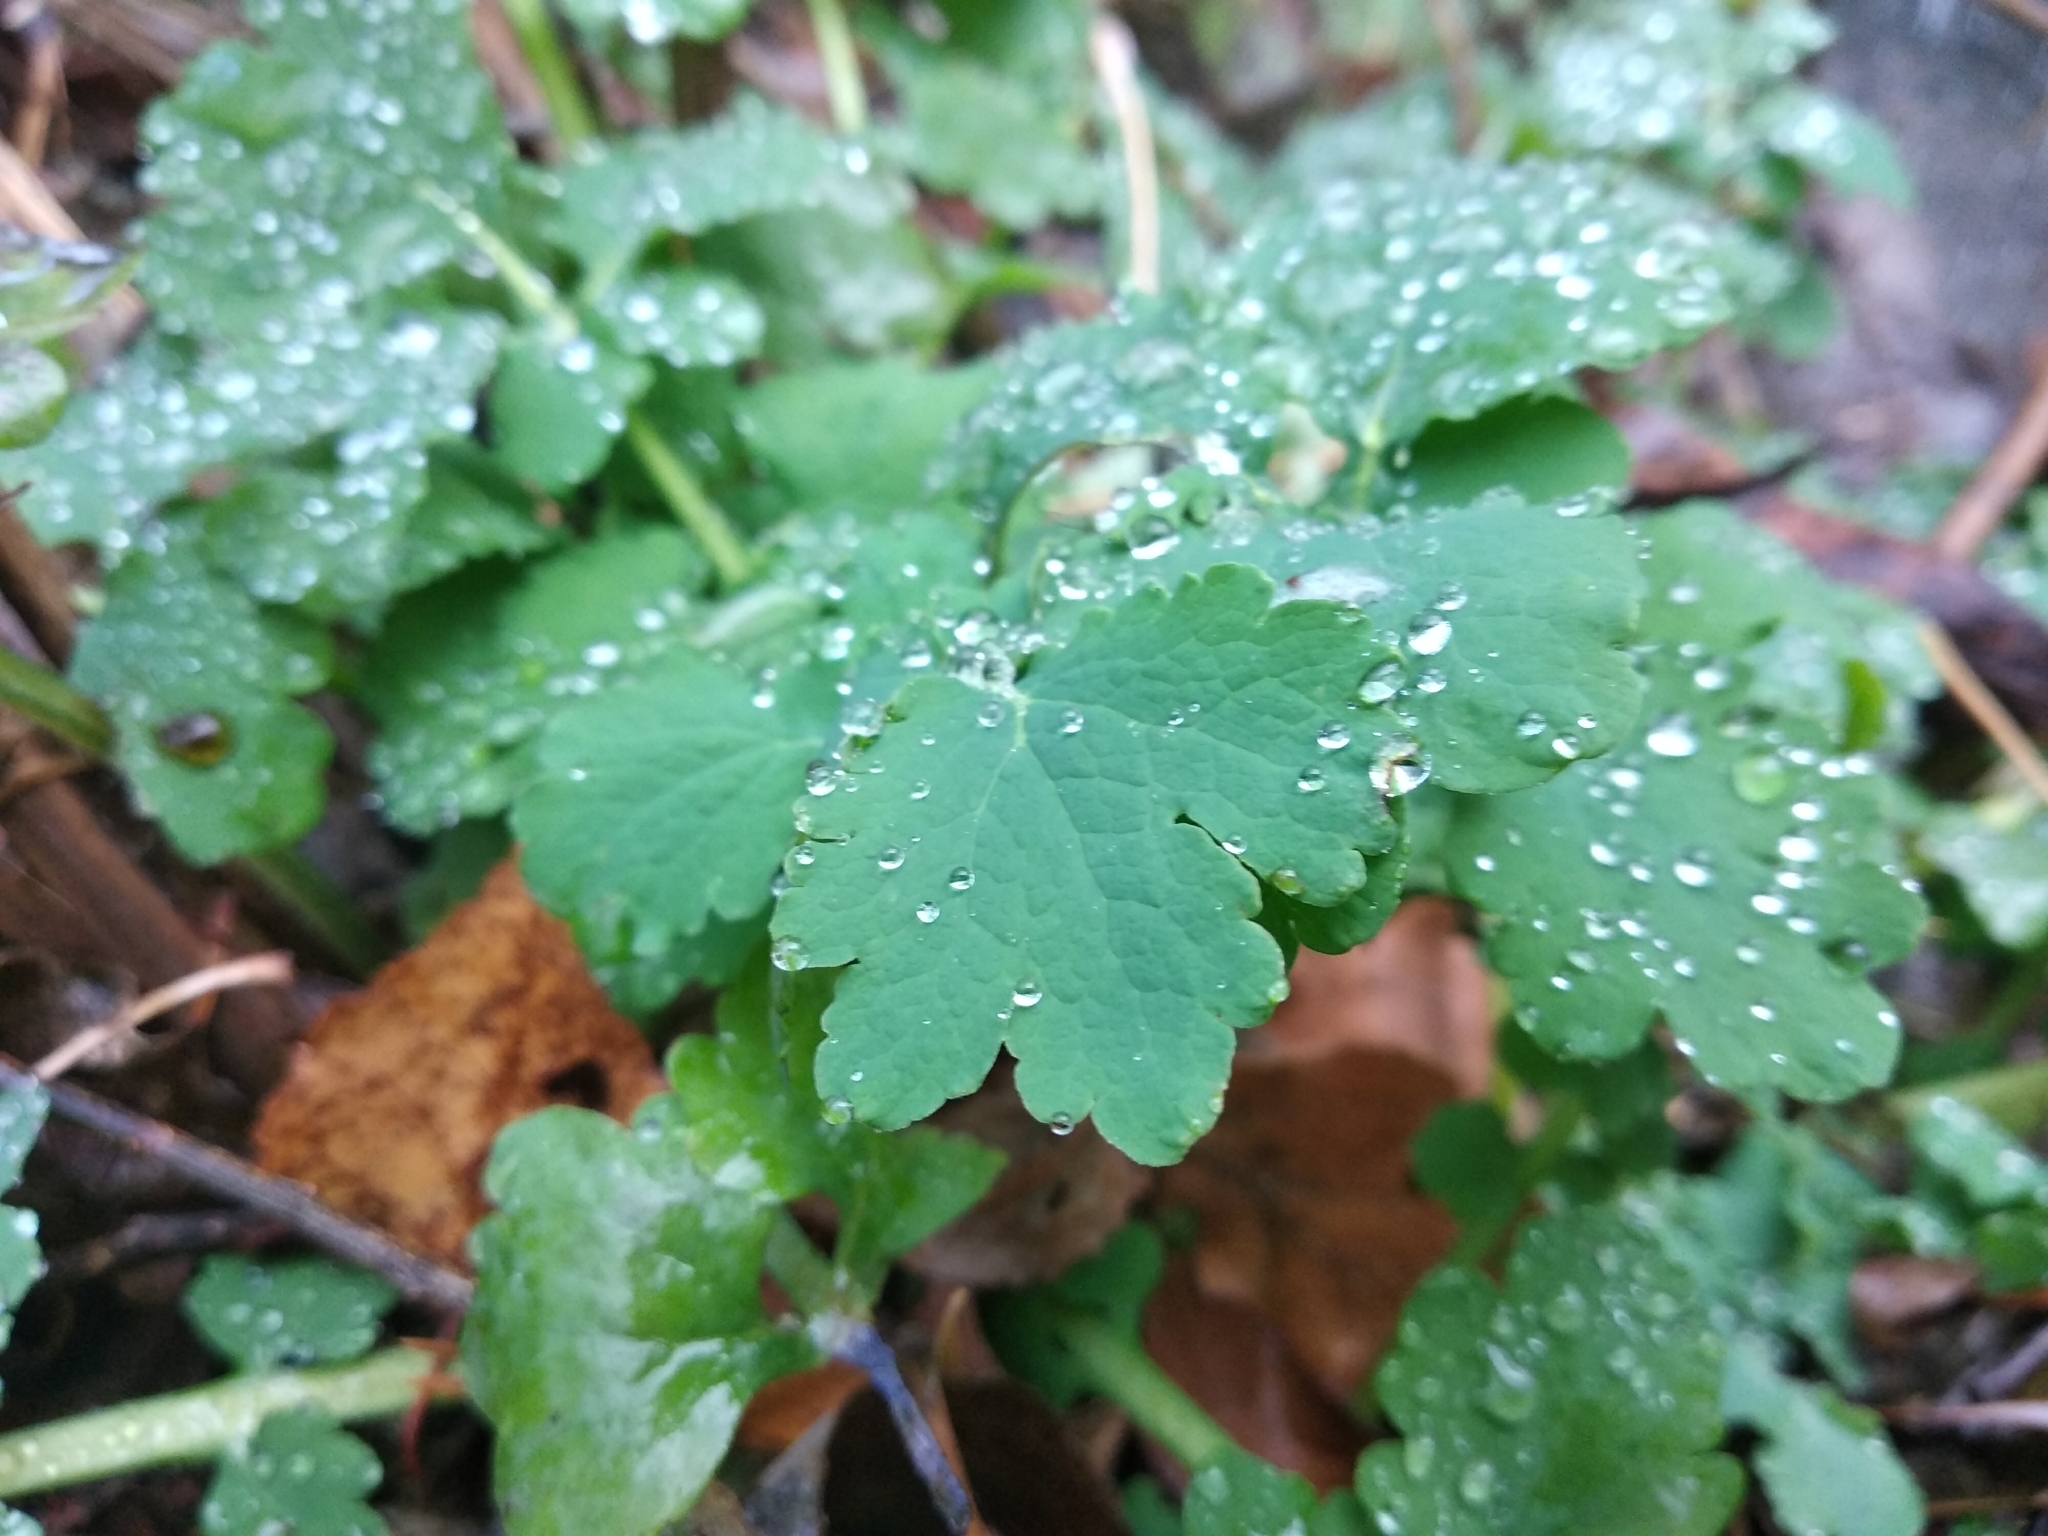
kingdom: Plantae
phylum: Tracheophyta
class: Magnoliopsida
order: Ranunculales
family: Papaveraceae
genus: Chelidonium
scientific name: Chelidonium majus
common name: Greater celandine
